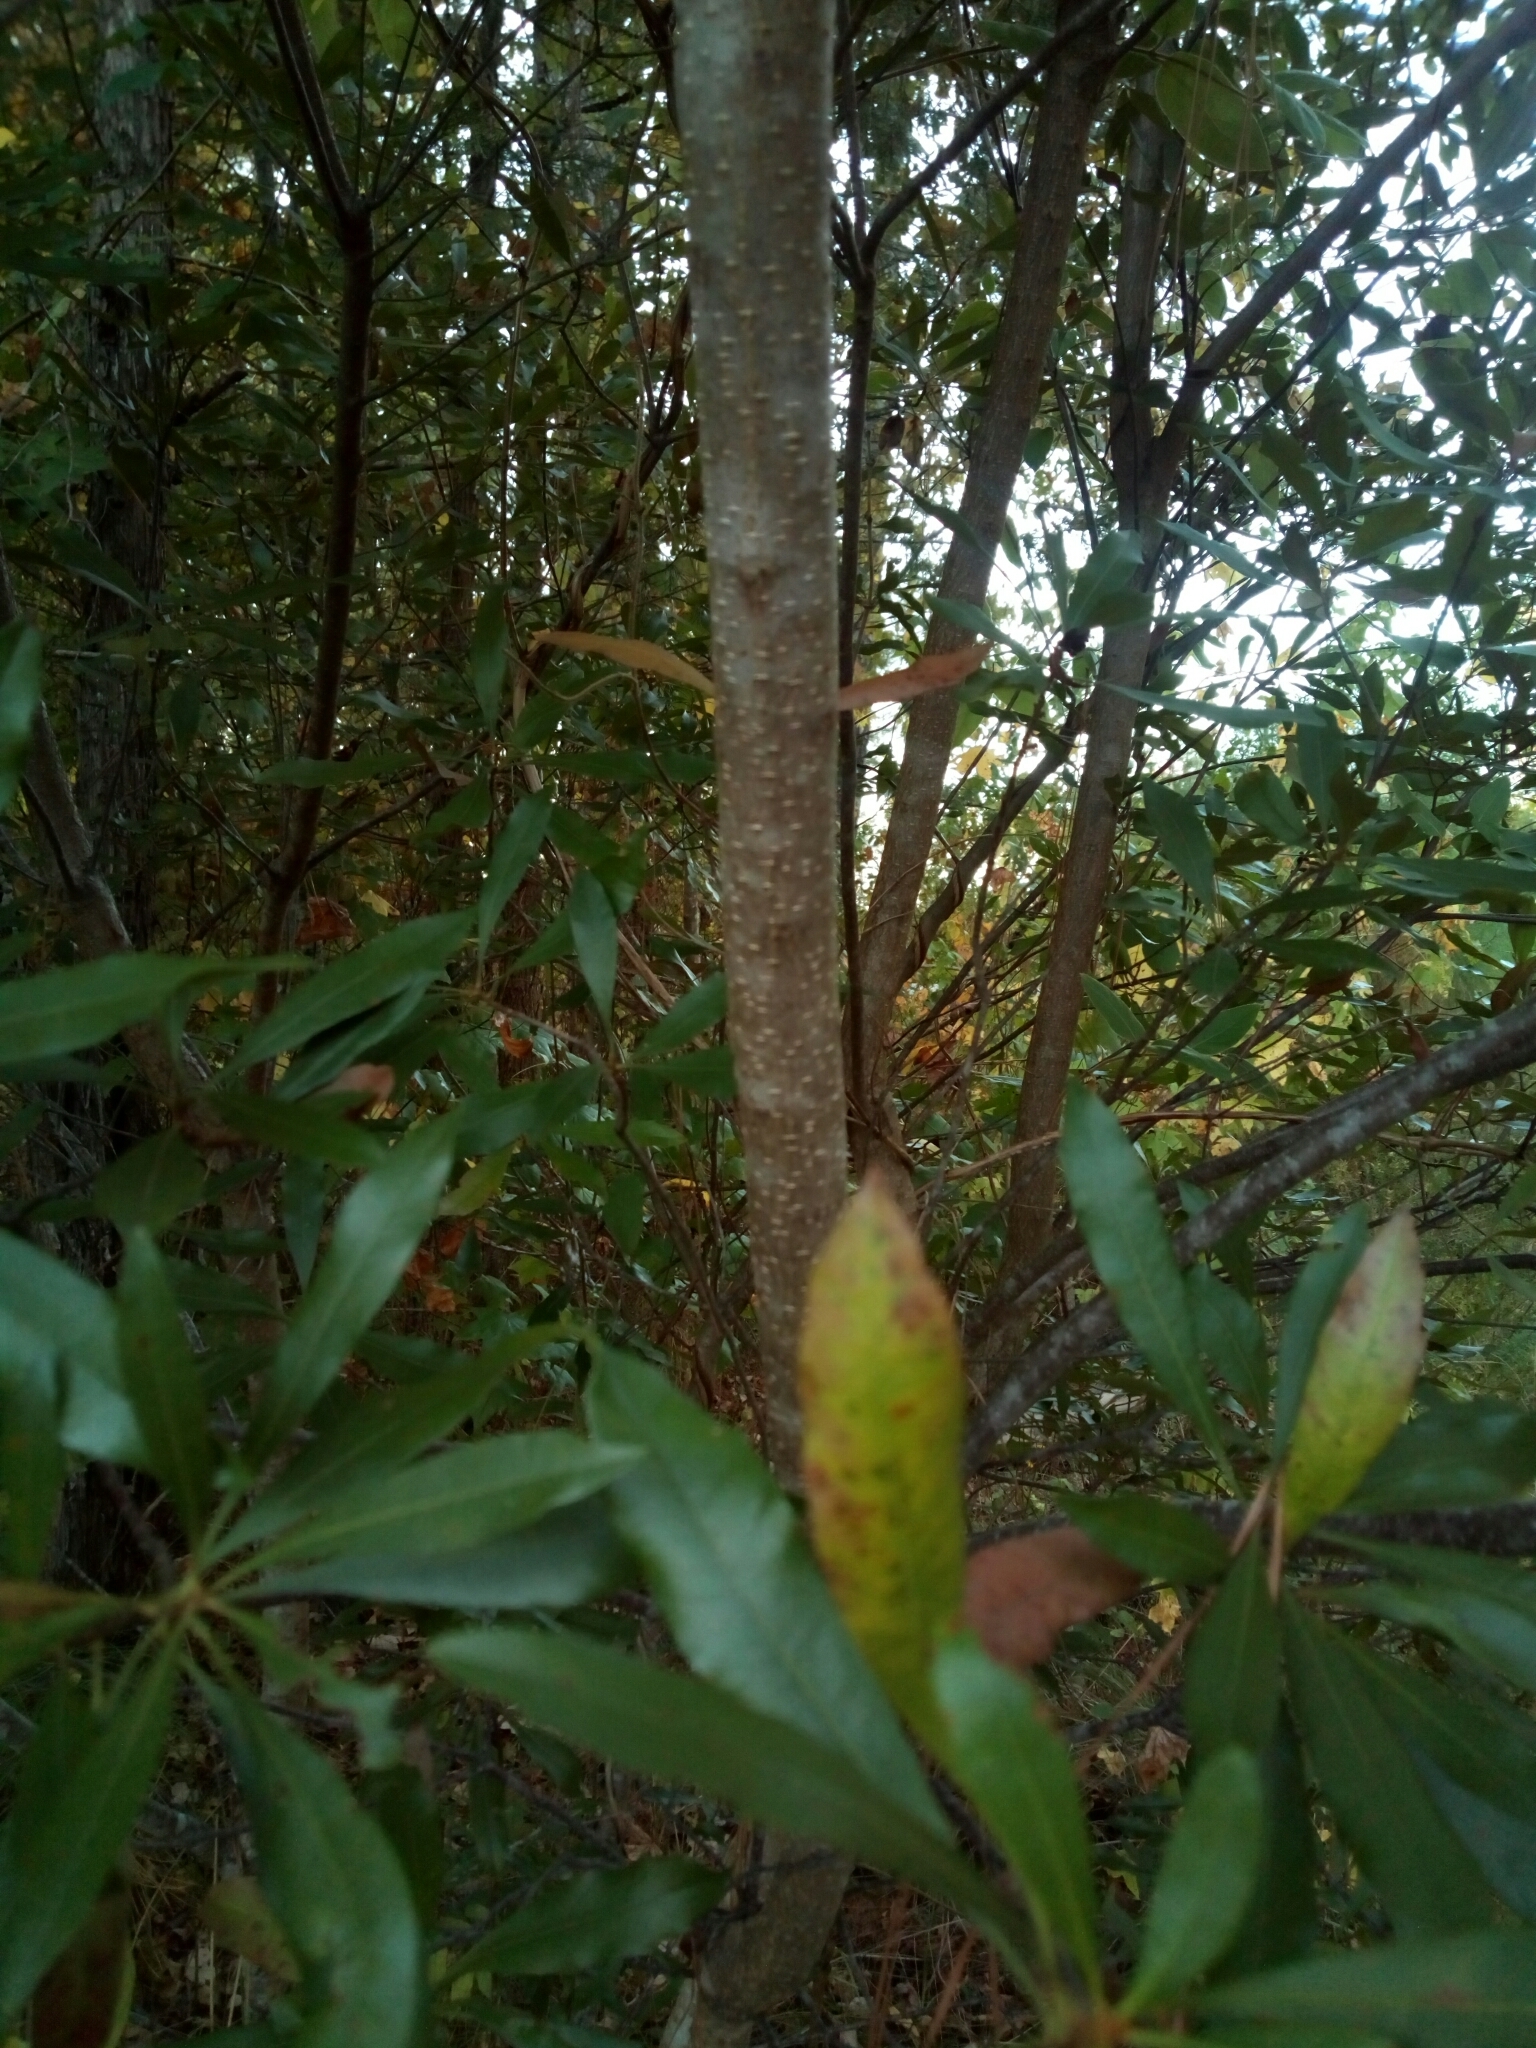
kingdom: Plantae
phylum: Tracheophyta
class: Magnoliopsida
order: Fagales
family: Myricaceae
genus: Morella
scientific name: Morella cerifera
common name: Wax myrtle
